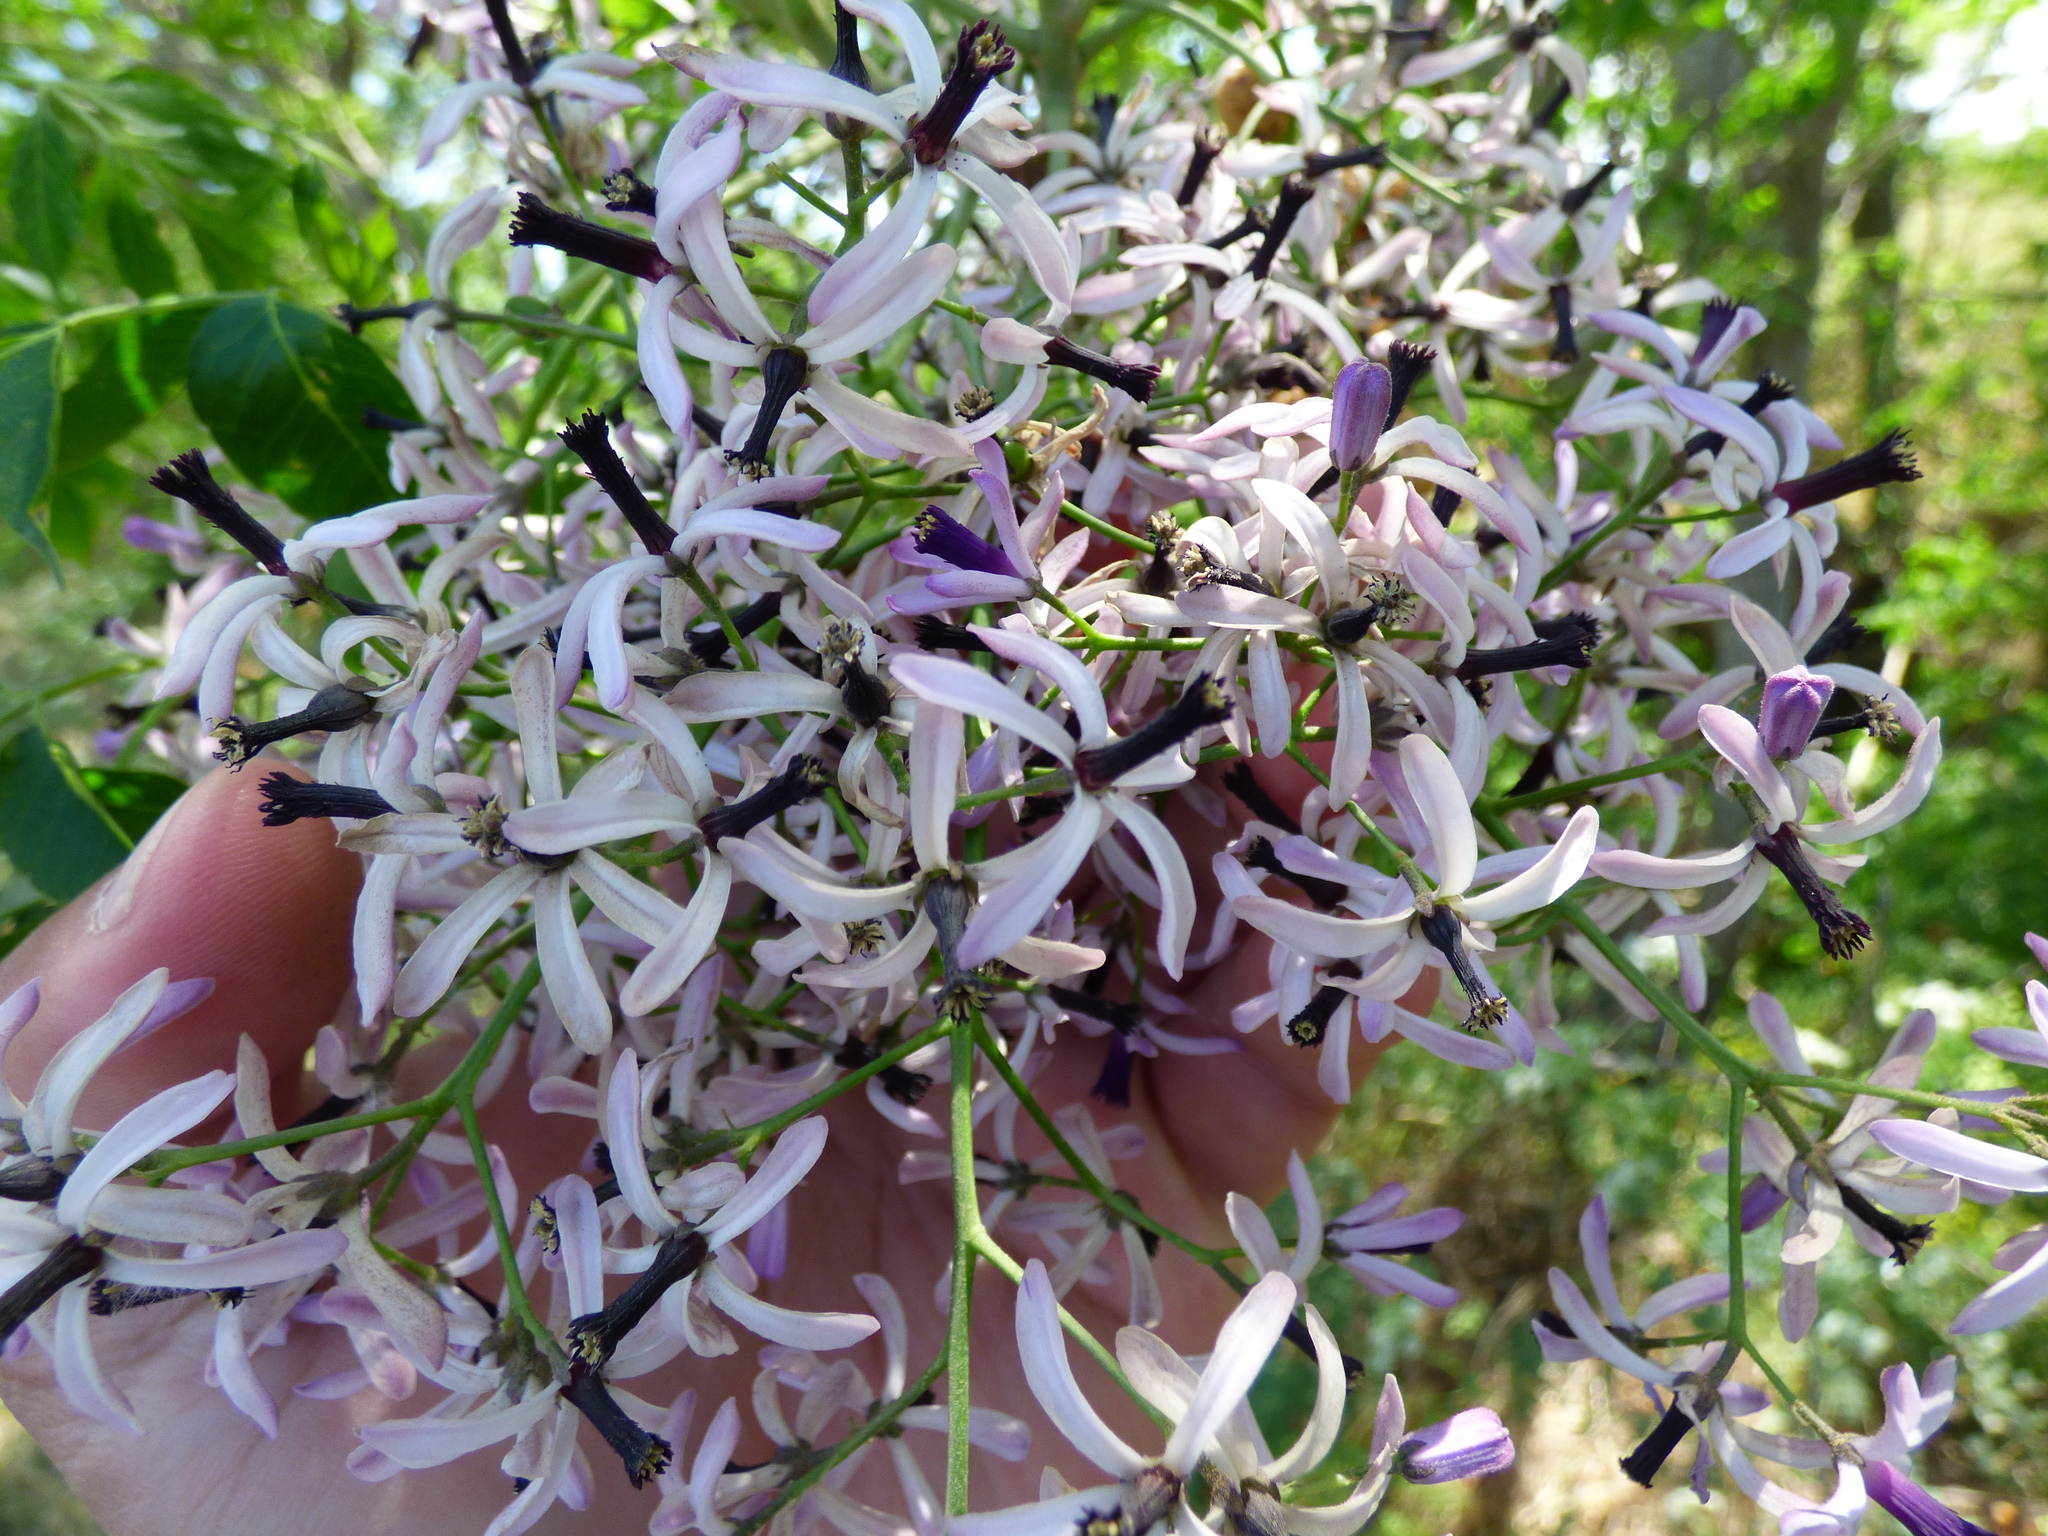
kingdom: Plantae
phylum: Tracheophyta
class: Magnoliopsida
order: Sapindales
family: Meliaceae
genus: Melia
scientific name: Melia azedarach
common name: Chinaberrytree
